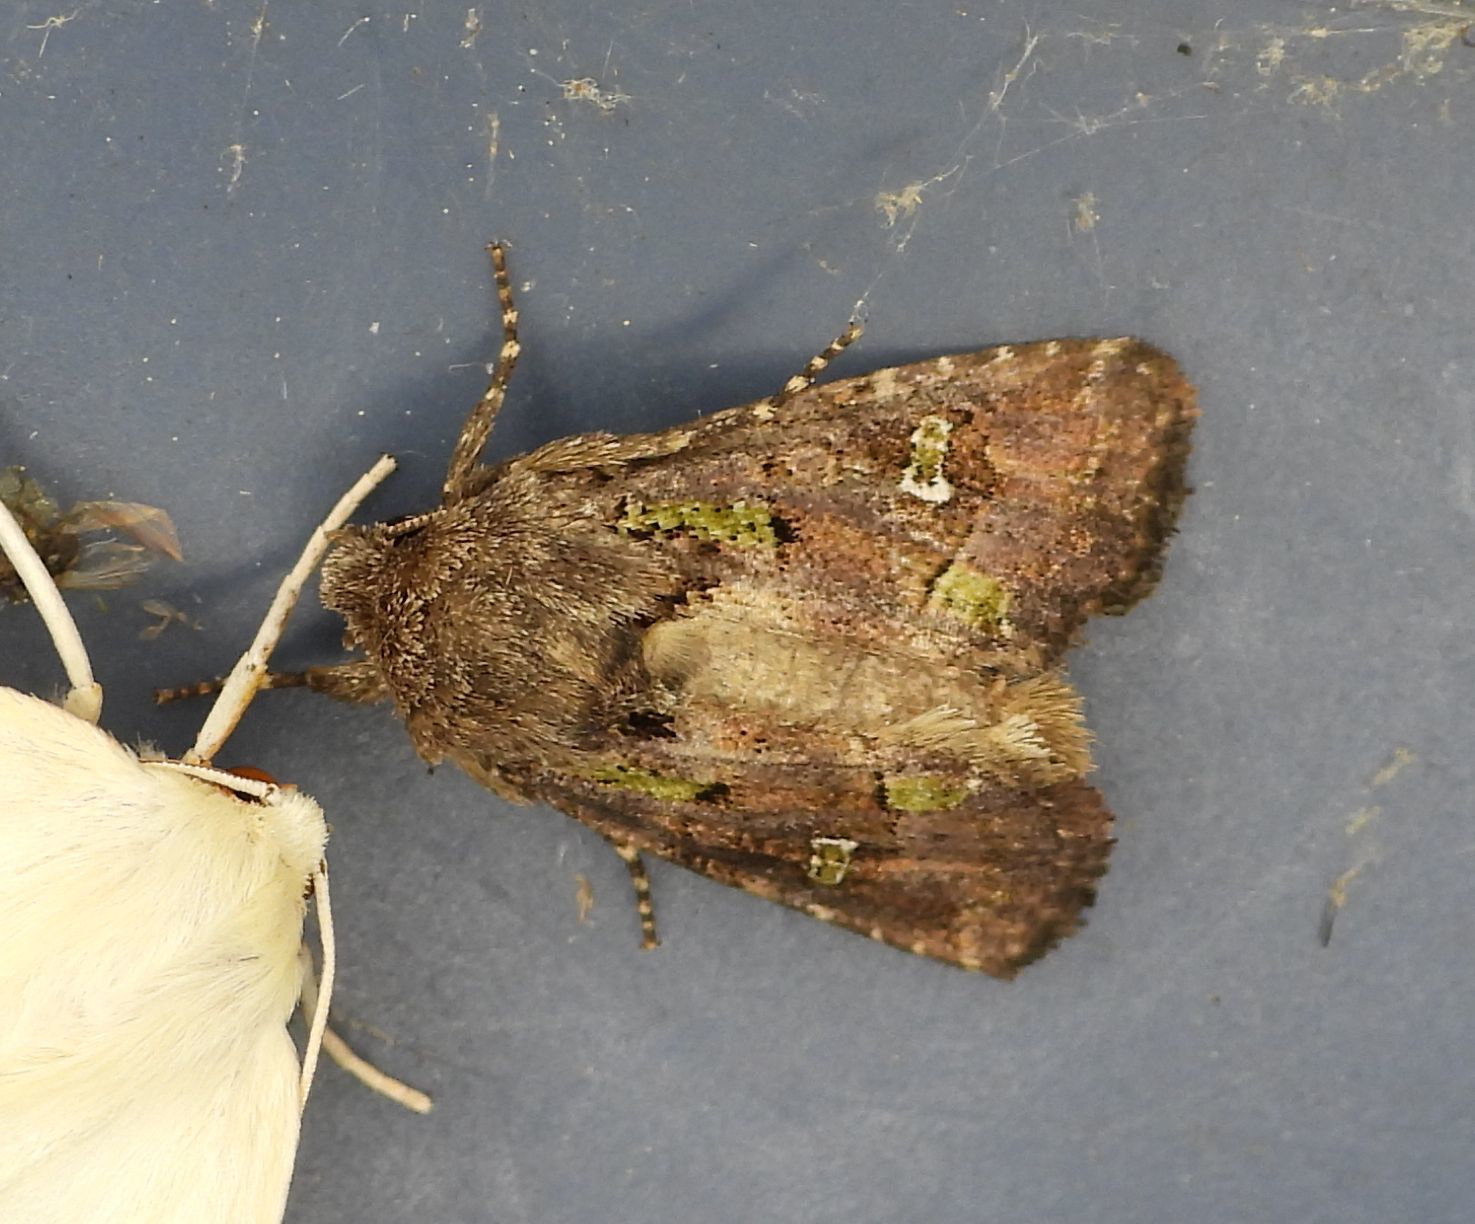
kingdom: Animalia
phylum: Arthropoda
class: Insecta
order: Lepidoptera
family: Noctuidae
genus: Lacinipolia
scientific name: Lacinipolia renigera
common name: Kidney-spotted minor
